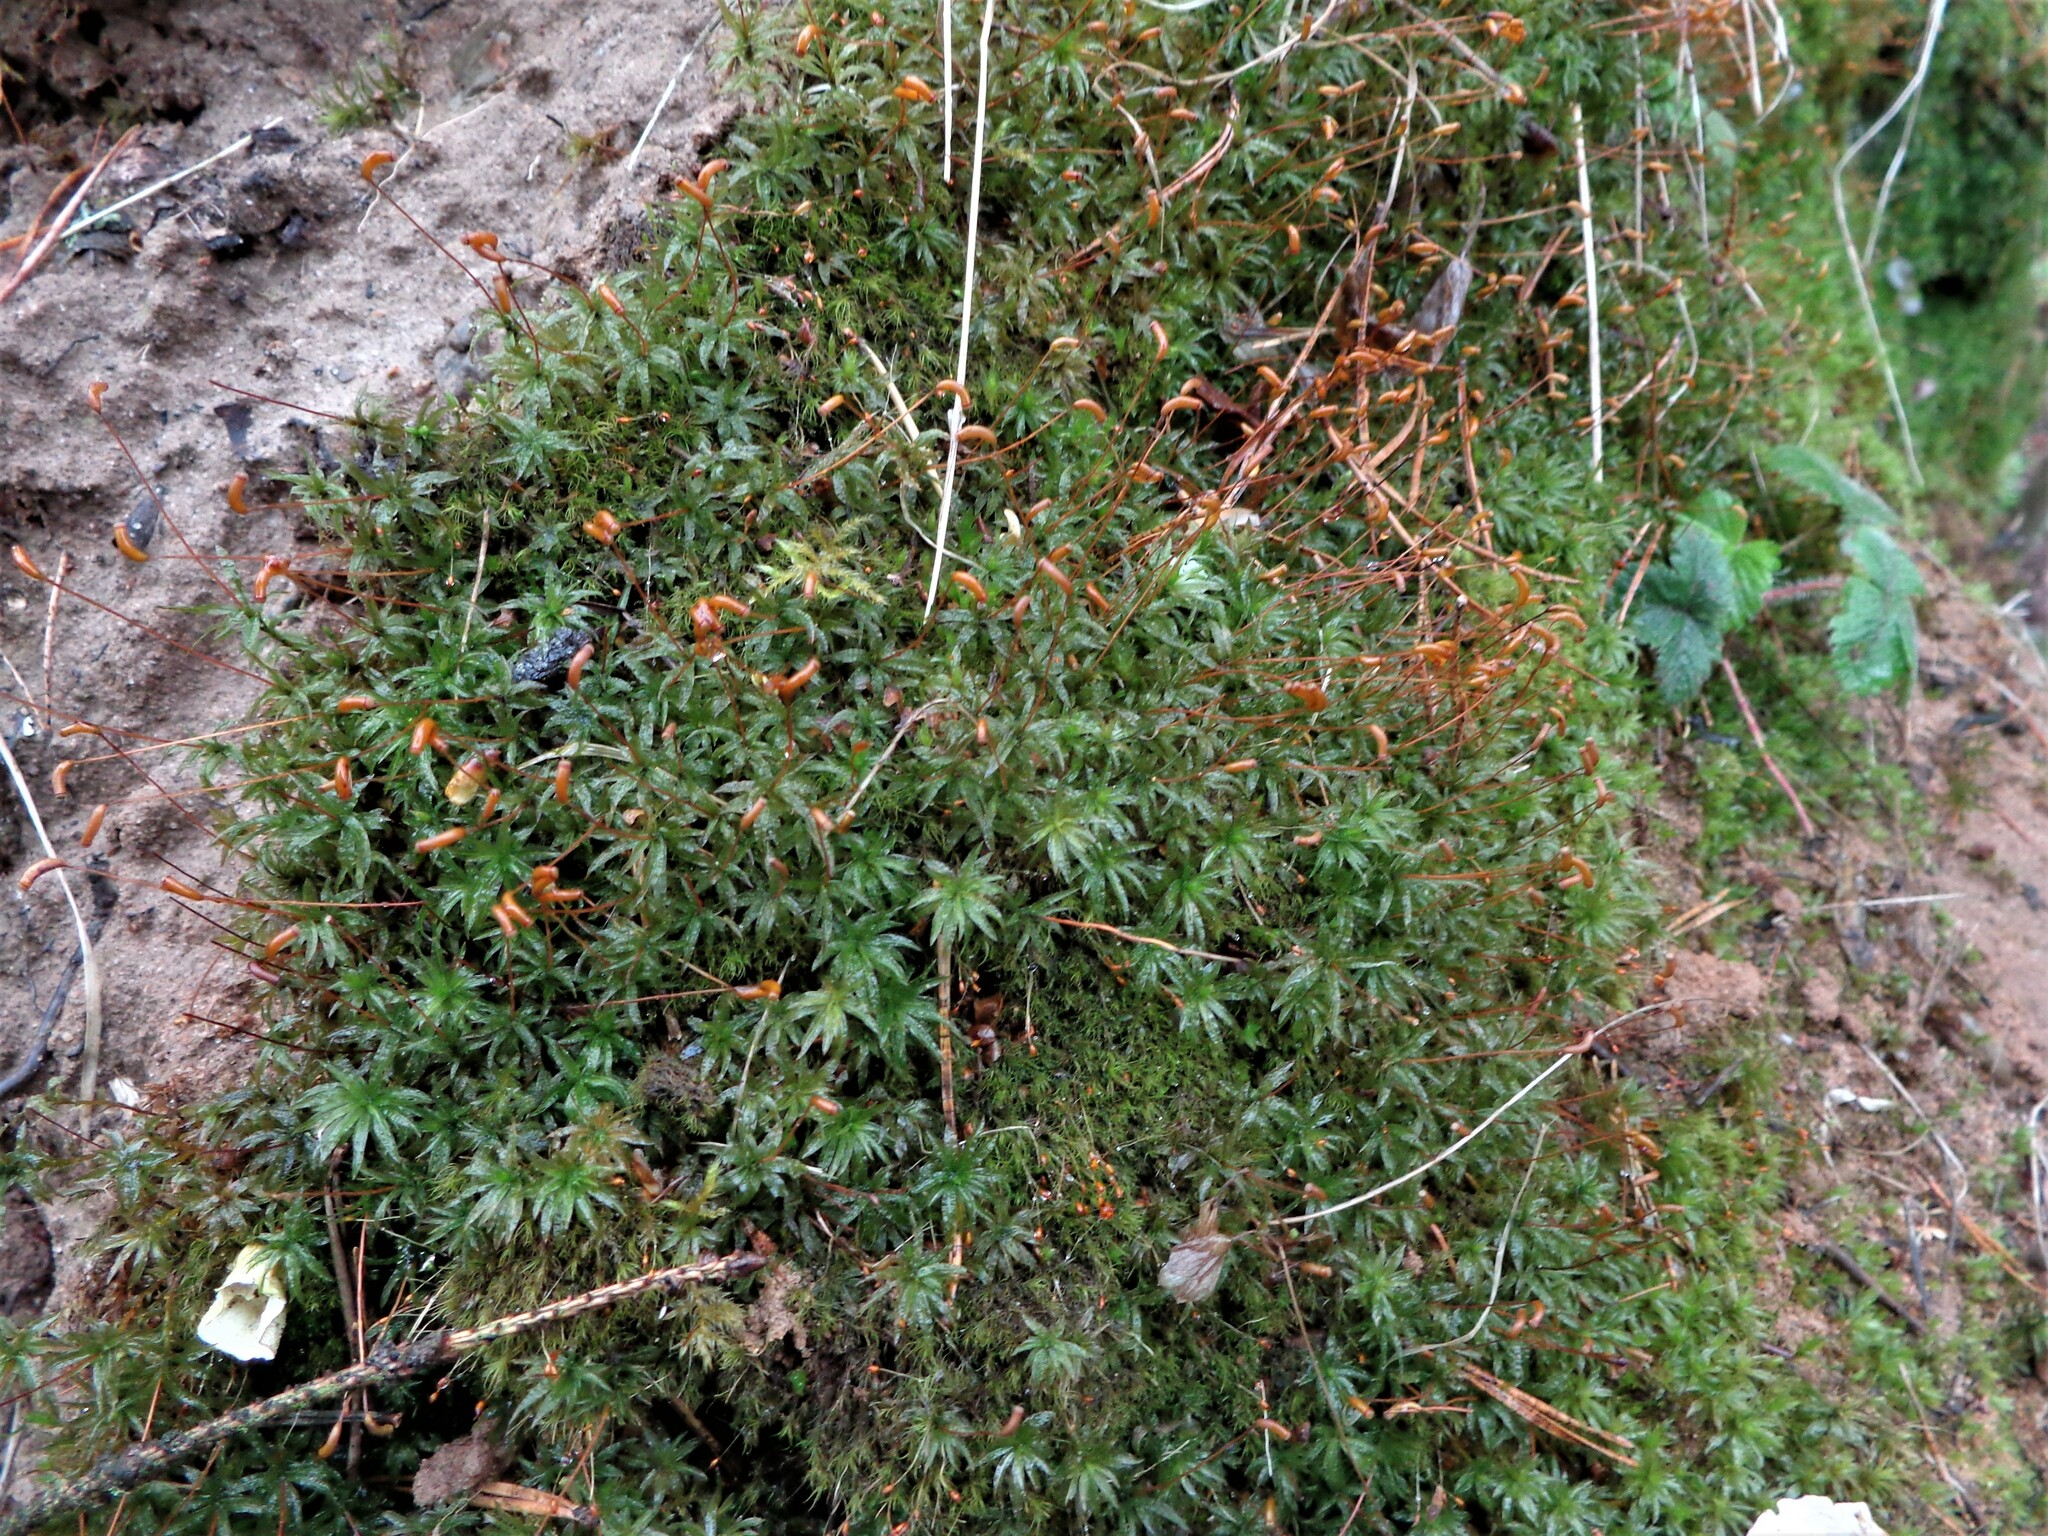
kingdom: Plantae
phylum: Bryophyta
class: Polytrichopsida
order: Polytrichales
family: Polytrichaceae
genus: Atrichum
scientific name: Atrichum undulatum
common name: Common smoothcap
